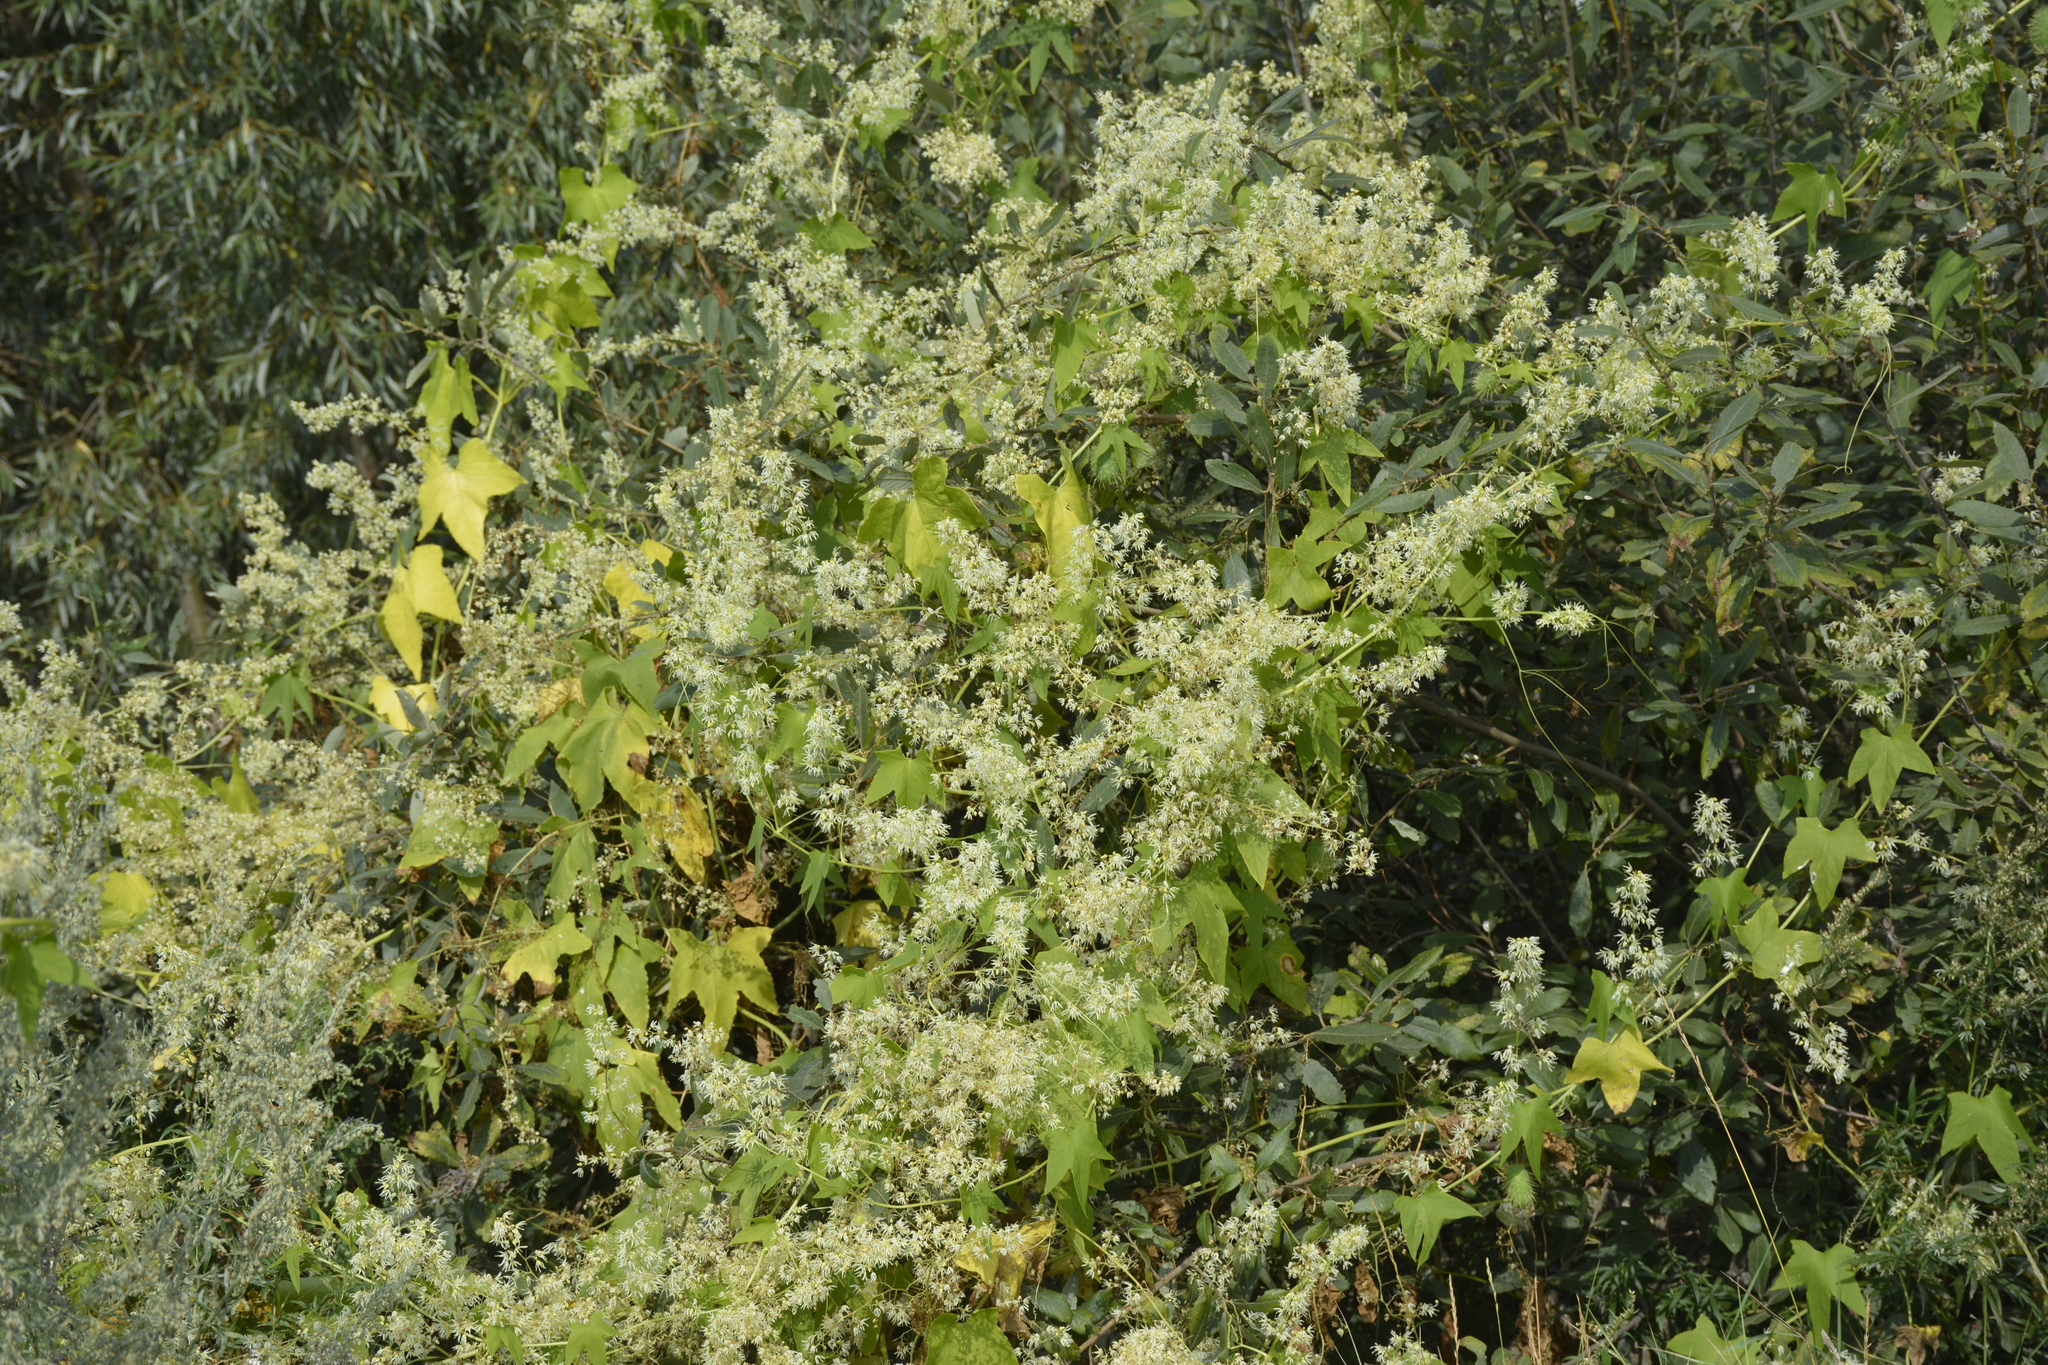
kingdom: Plantae
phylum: Tracheophyta
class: Magnoliopsida
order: Cucurbitales
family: Cucurbitaceae
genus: Echinocystis
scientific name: Echinocystis lobata
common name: Wild cucumber
